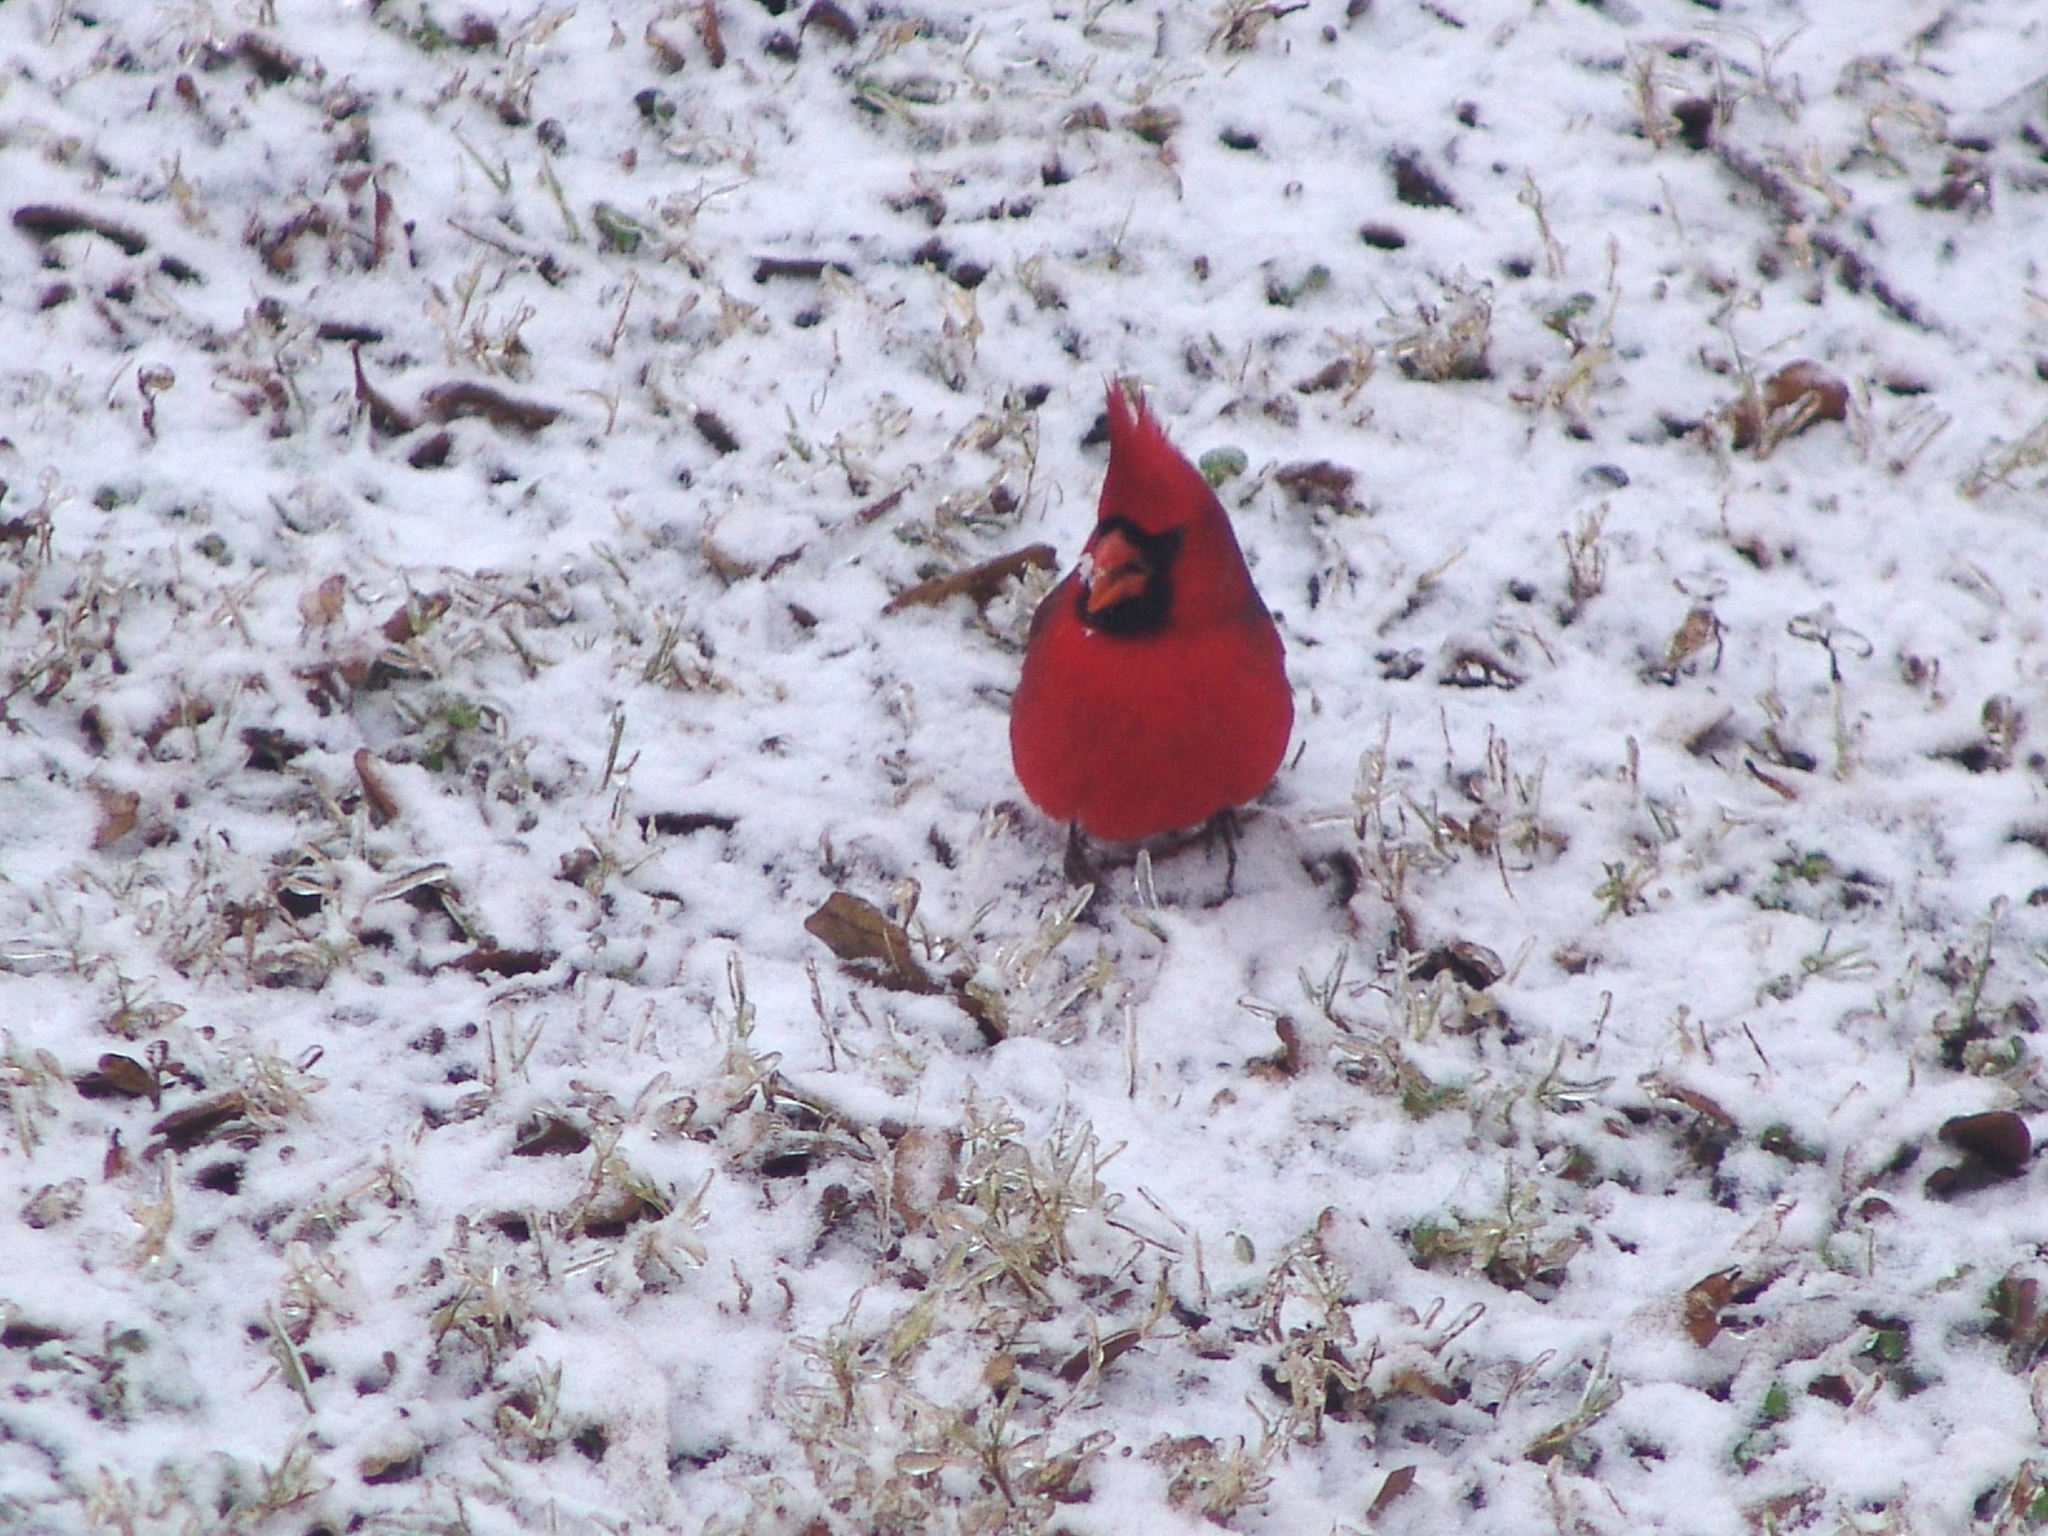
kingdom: Animalia
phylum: Chordata
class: Aves
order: Passeriformes
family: Cardinalidae
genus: Cardinalis
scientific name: Cardinalis cardinalis
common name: Northern cardinal
